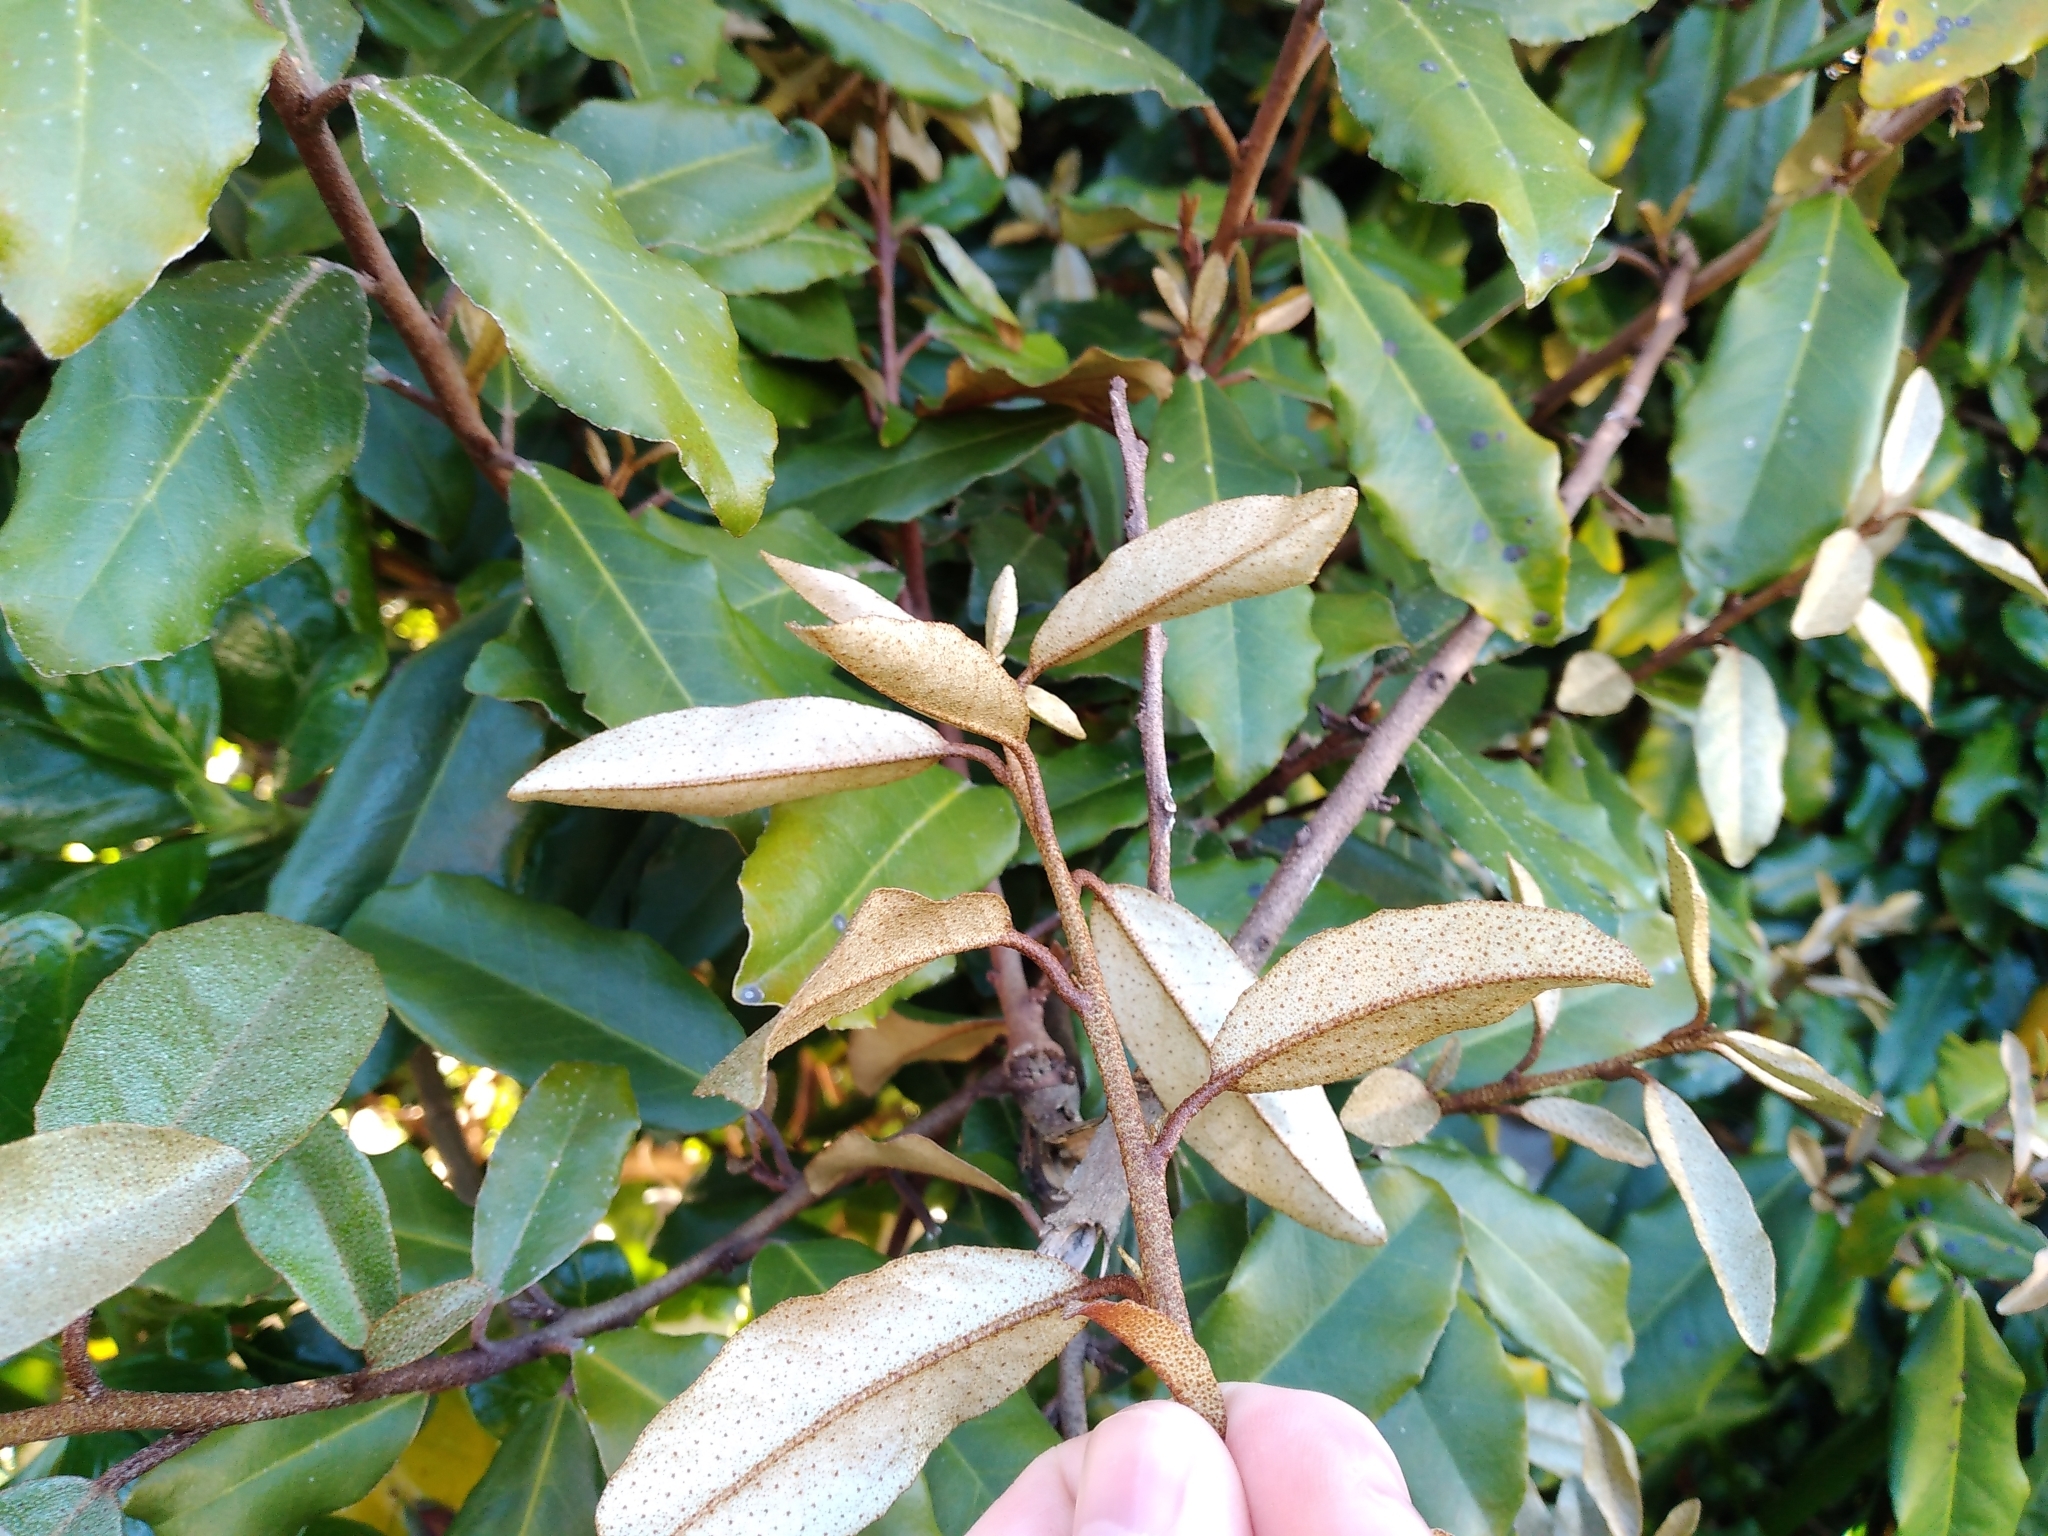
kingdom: Plantae
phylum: Tracheophyta
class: Magnoliopsida
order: Rosales
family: Elaeagnaceae
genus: Elaeagnus
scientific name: Elaeagnus reflexa
